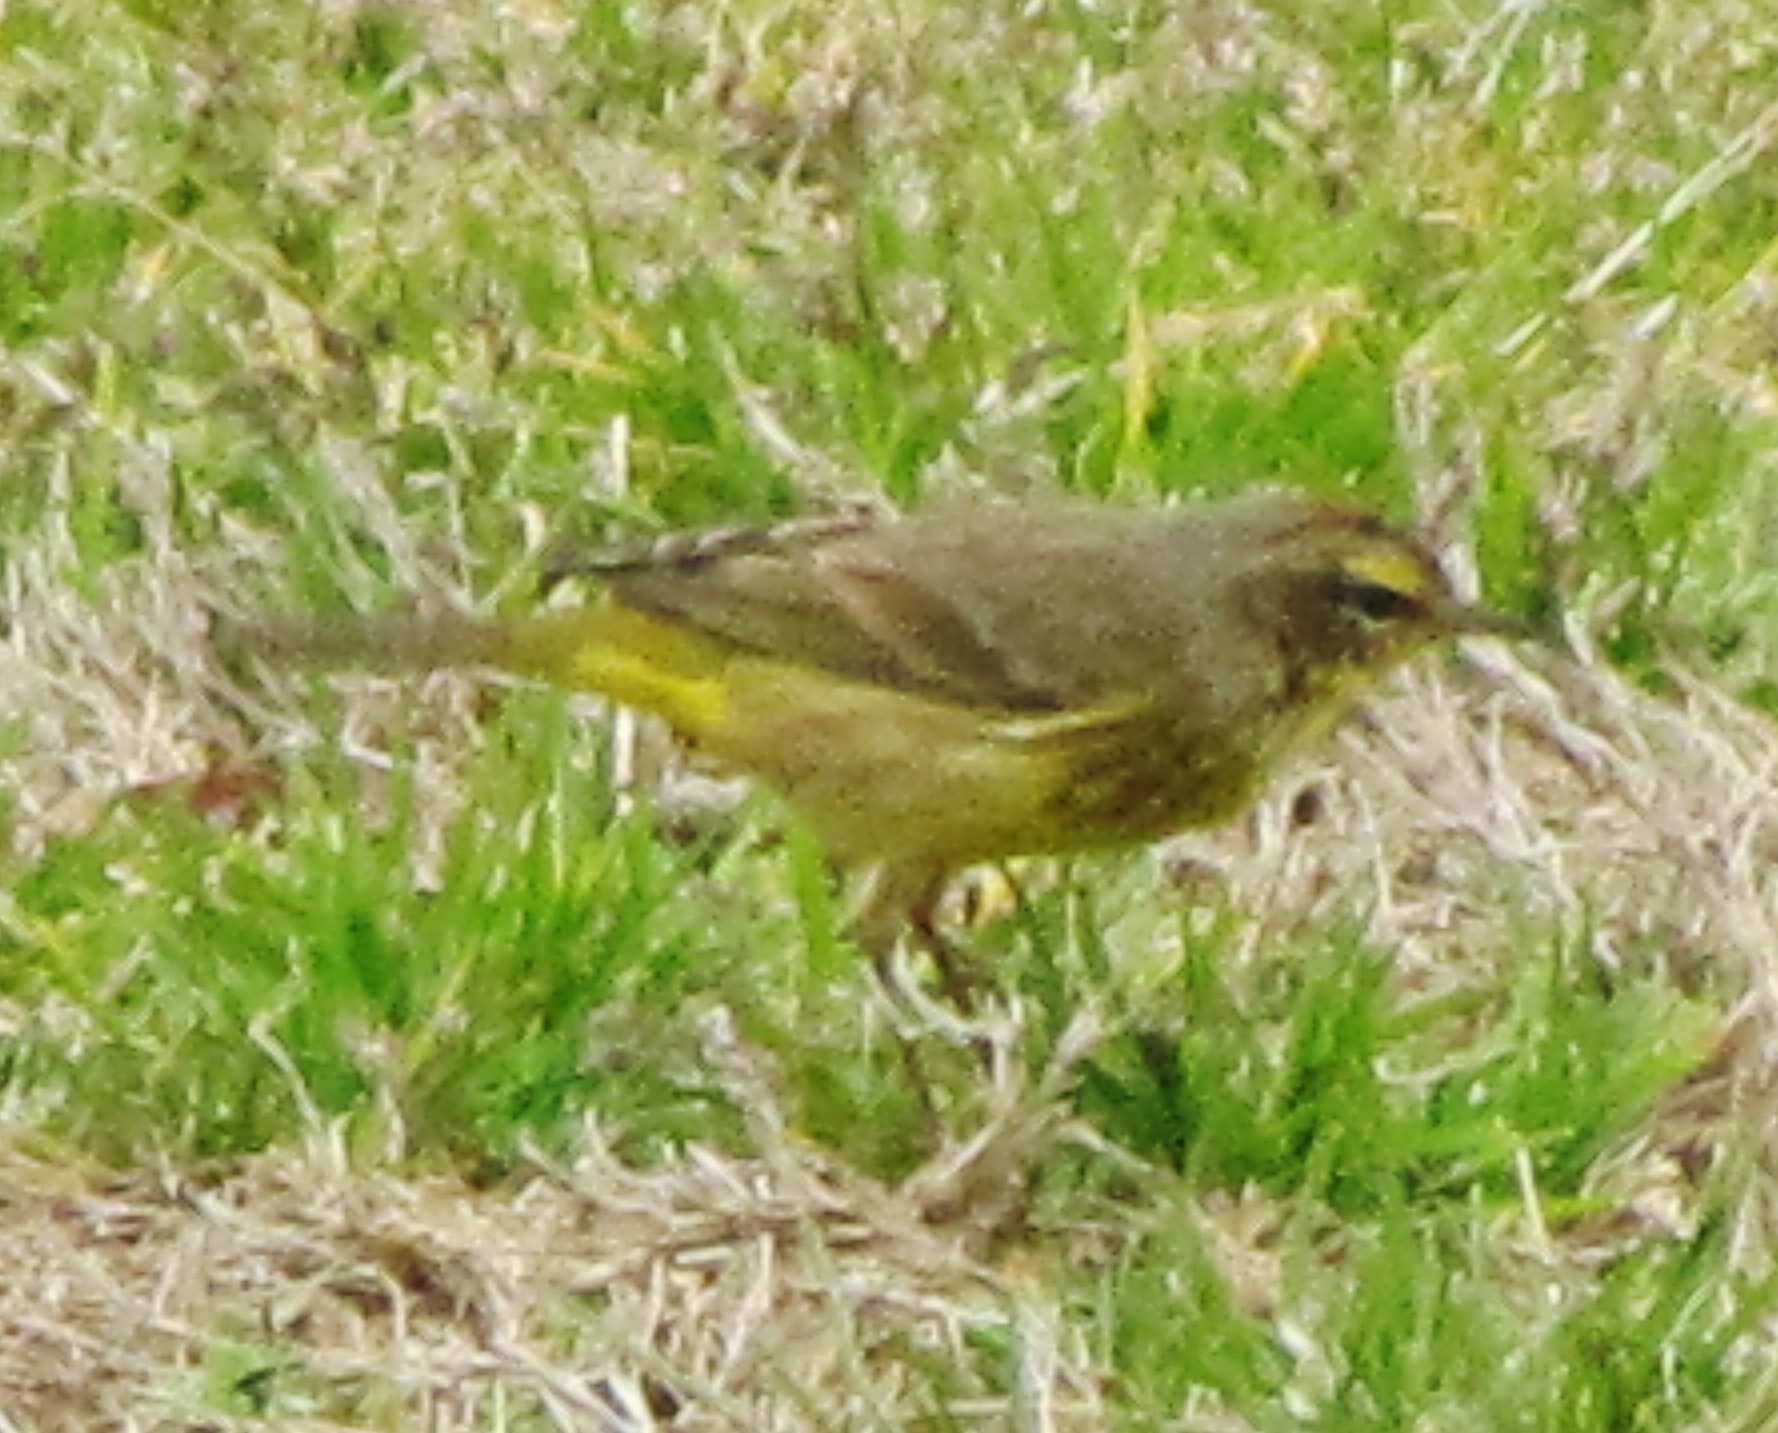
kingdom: Animalia
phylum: Chordata
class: Aves
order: Passeriformes
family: Parulidae
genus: Setophaga
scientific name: Setophaga palmarum
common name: Palm warbler
